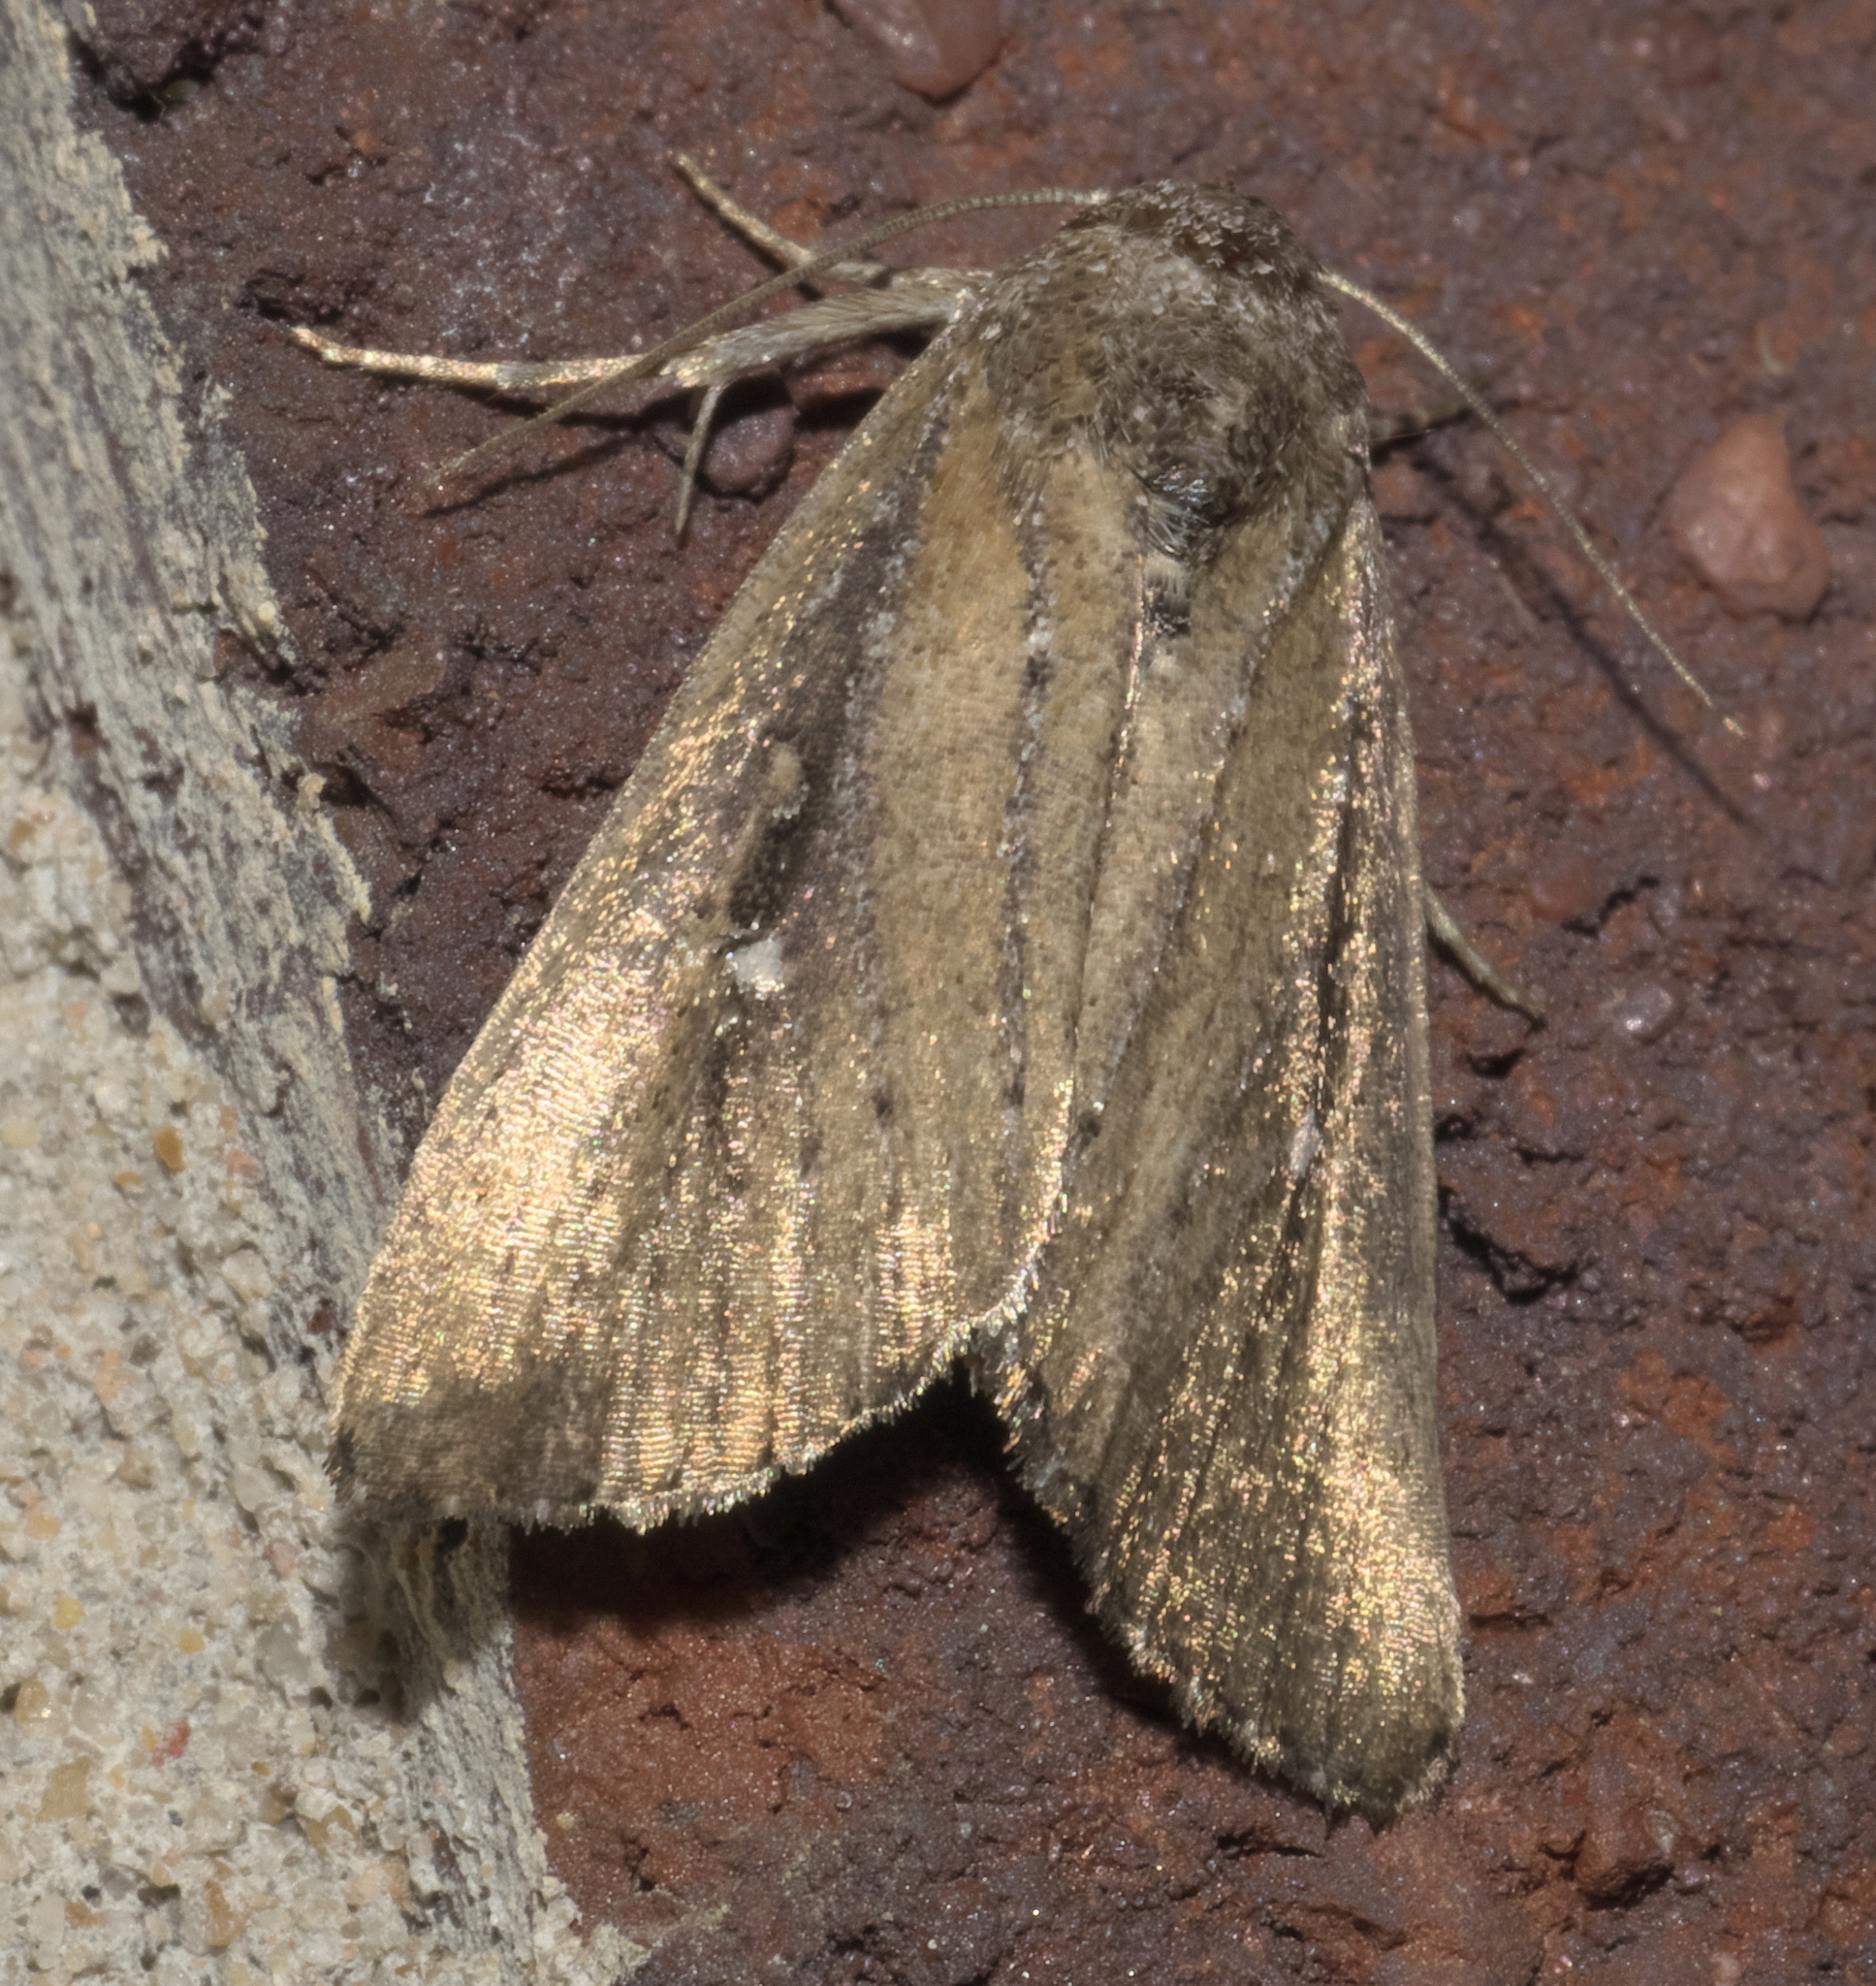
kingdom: Animalia
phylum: Arthropoda
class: Insecta
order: Lepidoptera
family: Noctuidae
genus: Condica
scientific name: Condica videns
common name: White-dotted groundling
